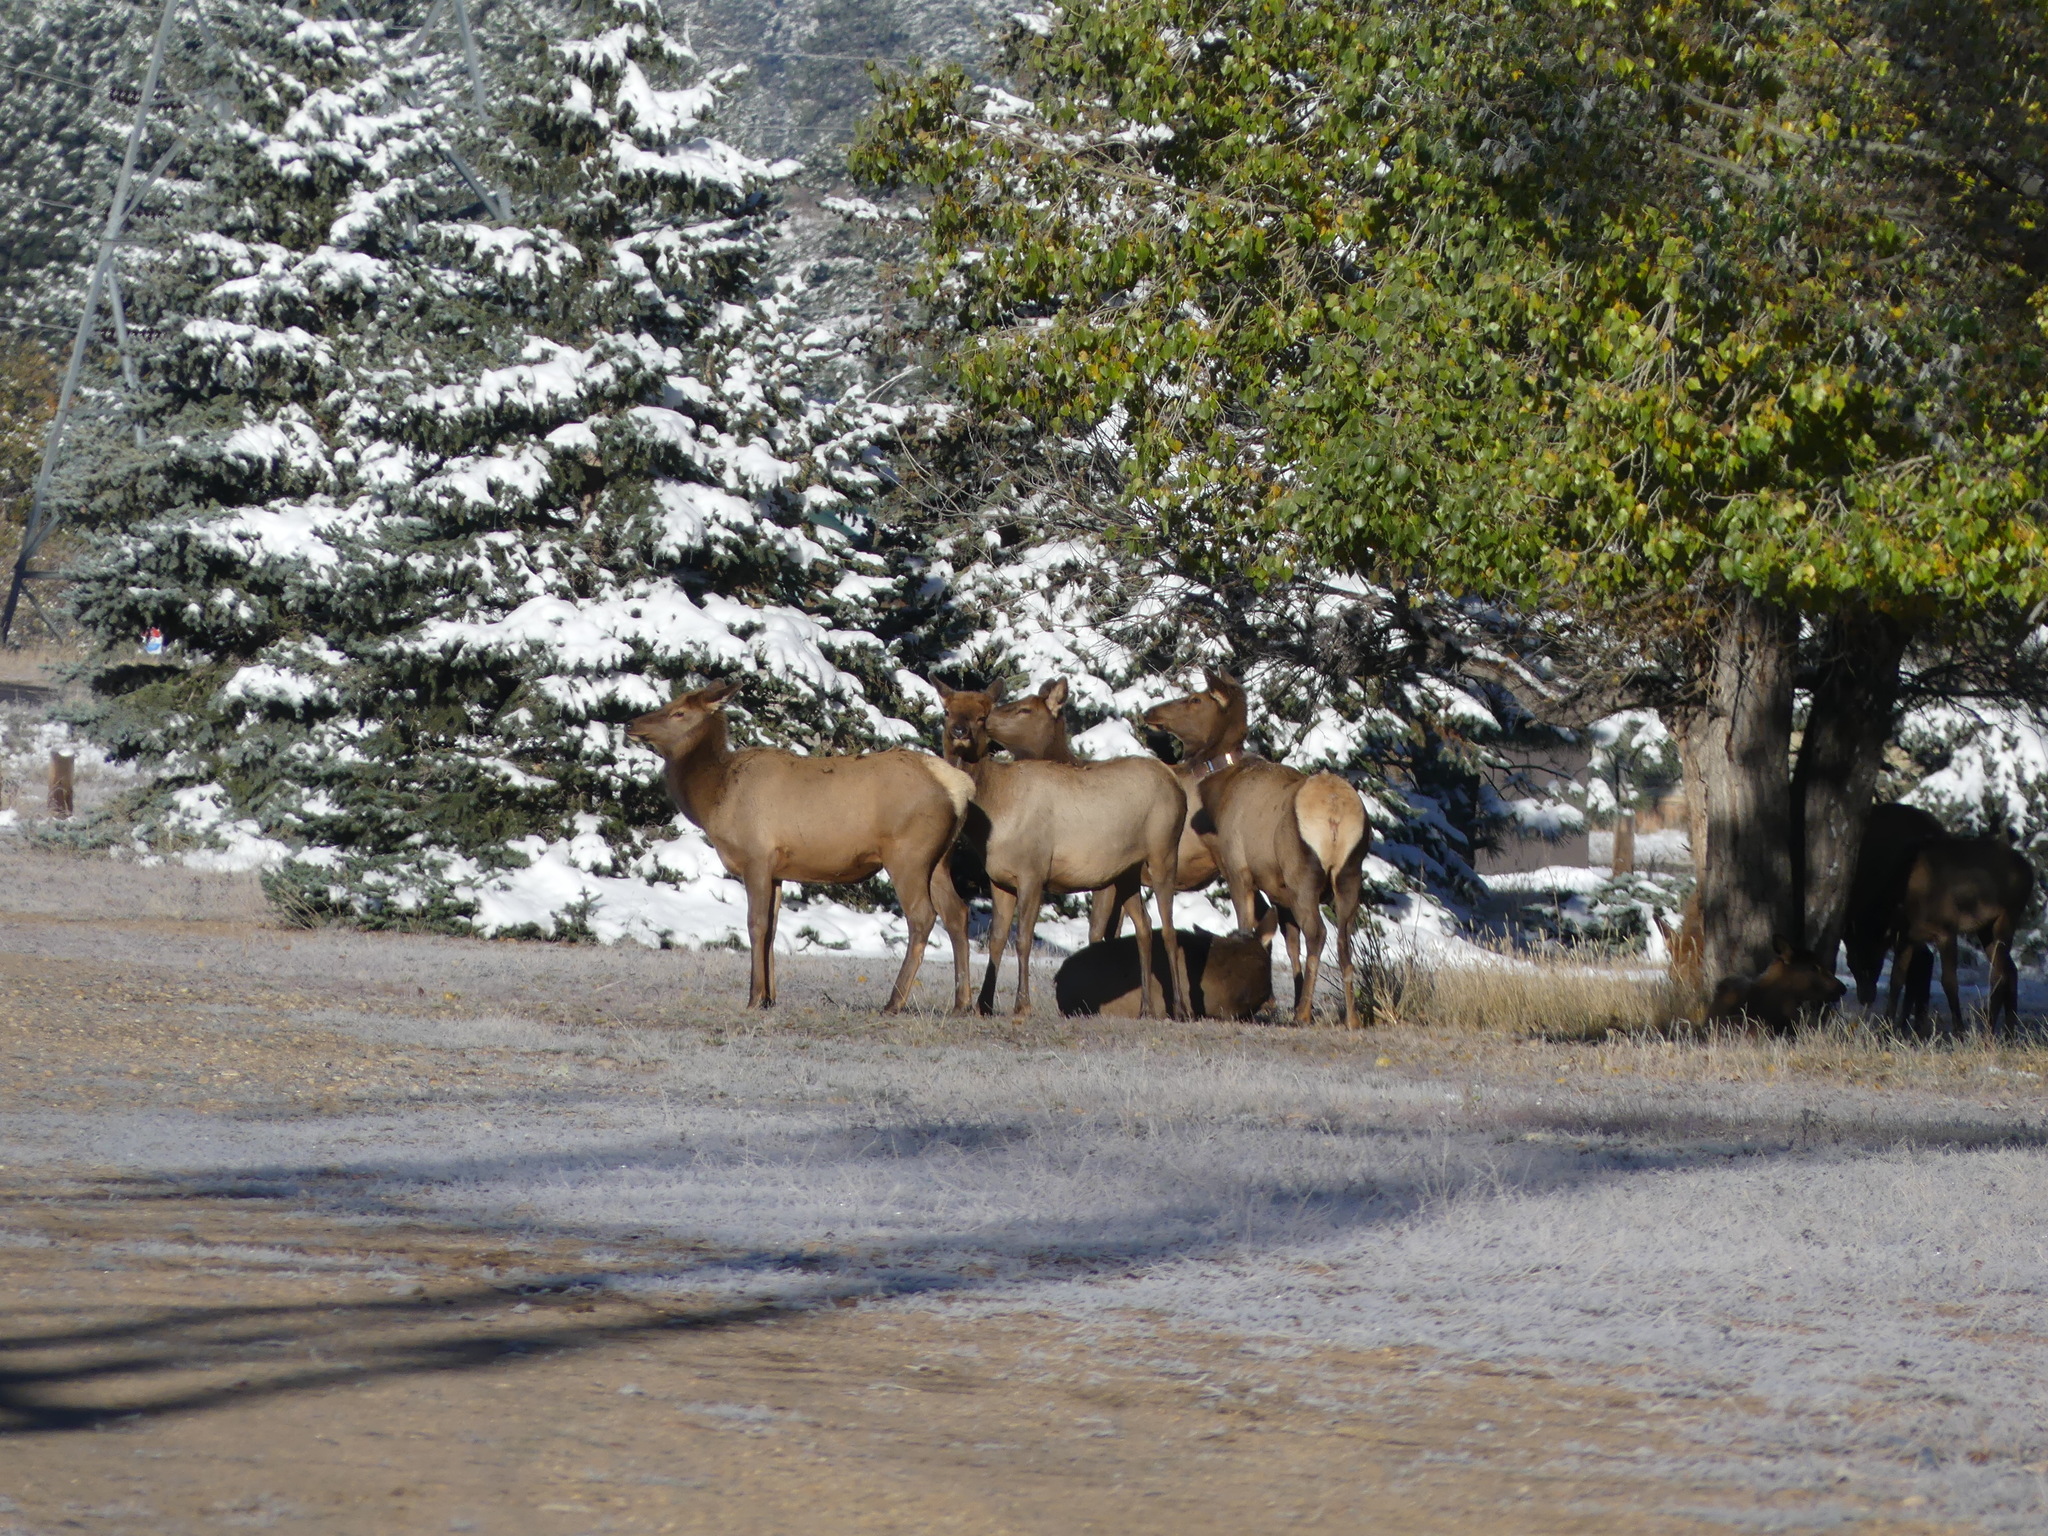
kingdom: Animalia
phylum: Chordata
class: Mammalia
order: Artiodactyla
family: Cervidae
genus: Cervus
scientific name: Cervus elaphus
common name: Red deer
